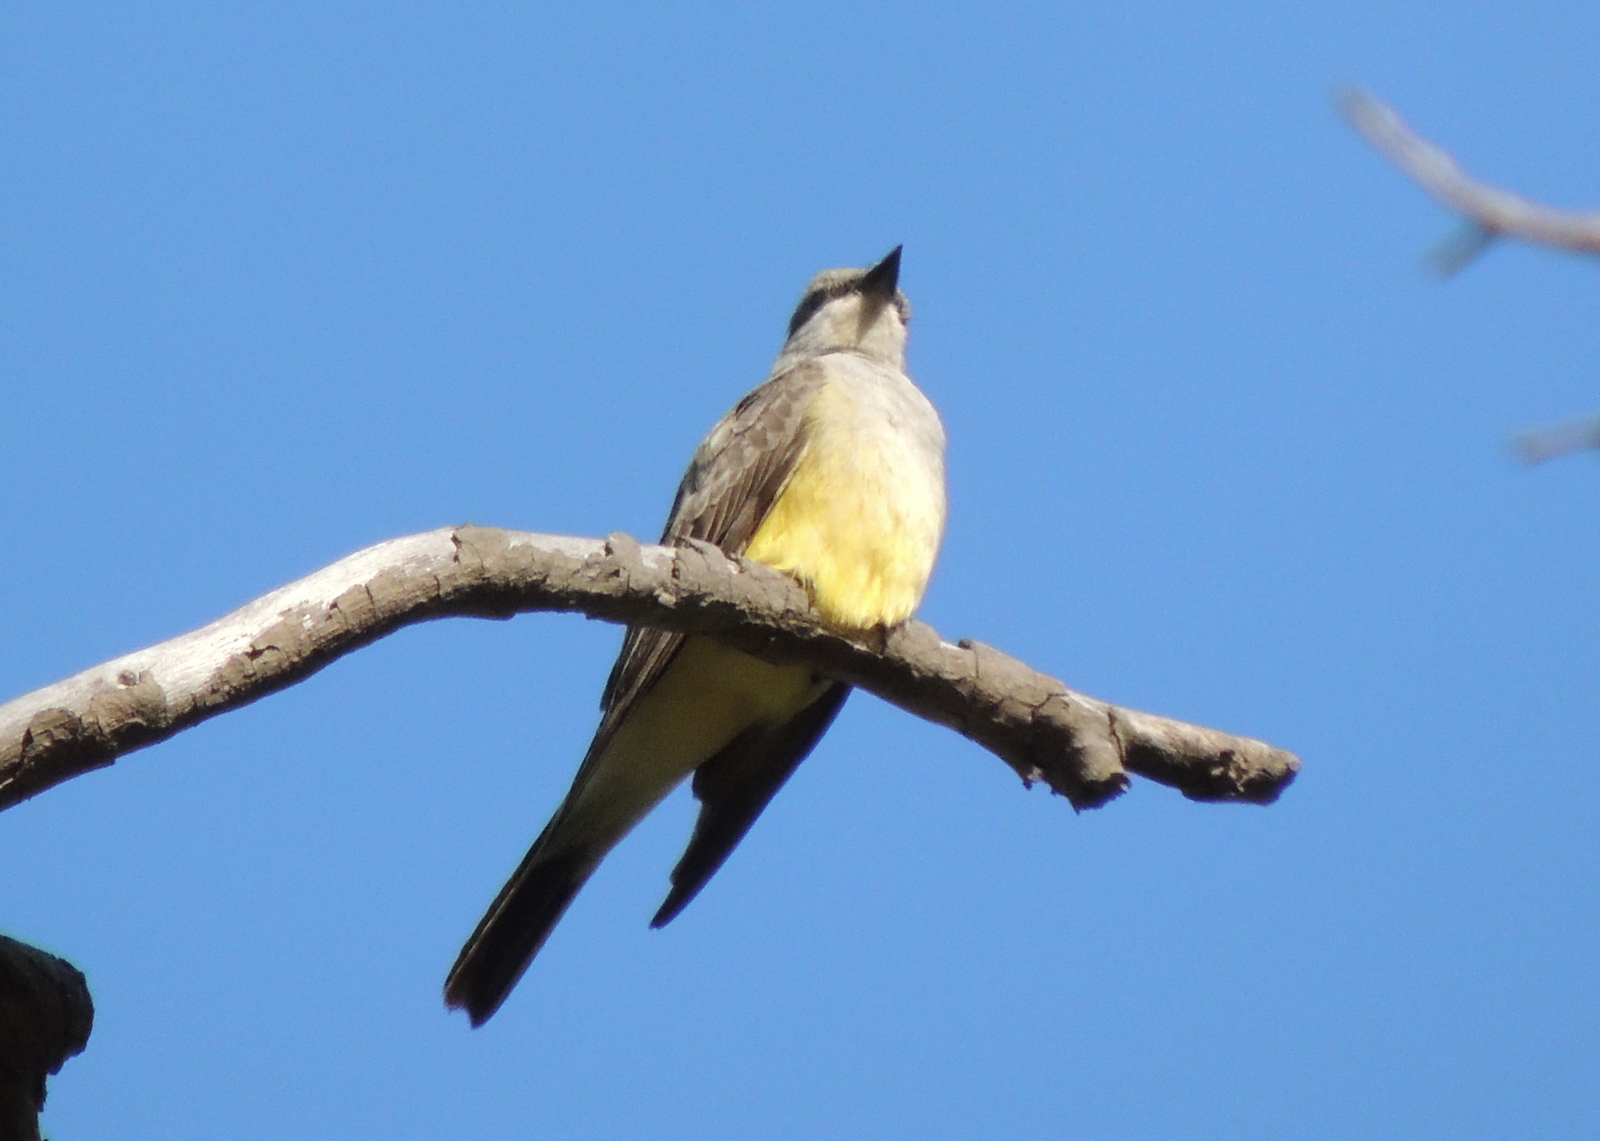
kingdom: Animalia
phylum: Chordata
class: Aves
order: Passeriformes
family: Tyrannidae
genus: Tyrannus
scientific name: Tyrannus verticalis
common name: Western kingbird
